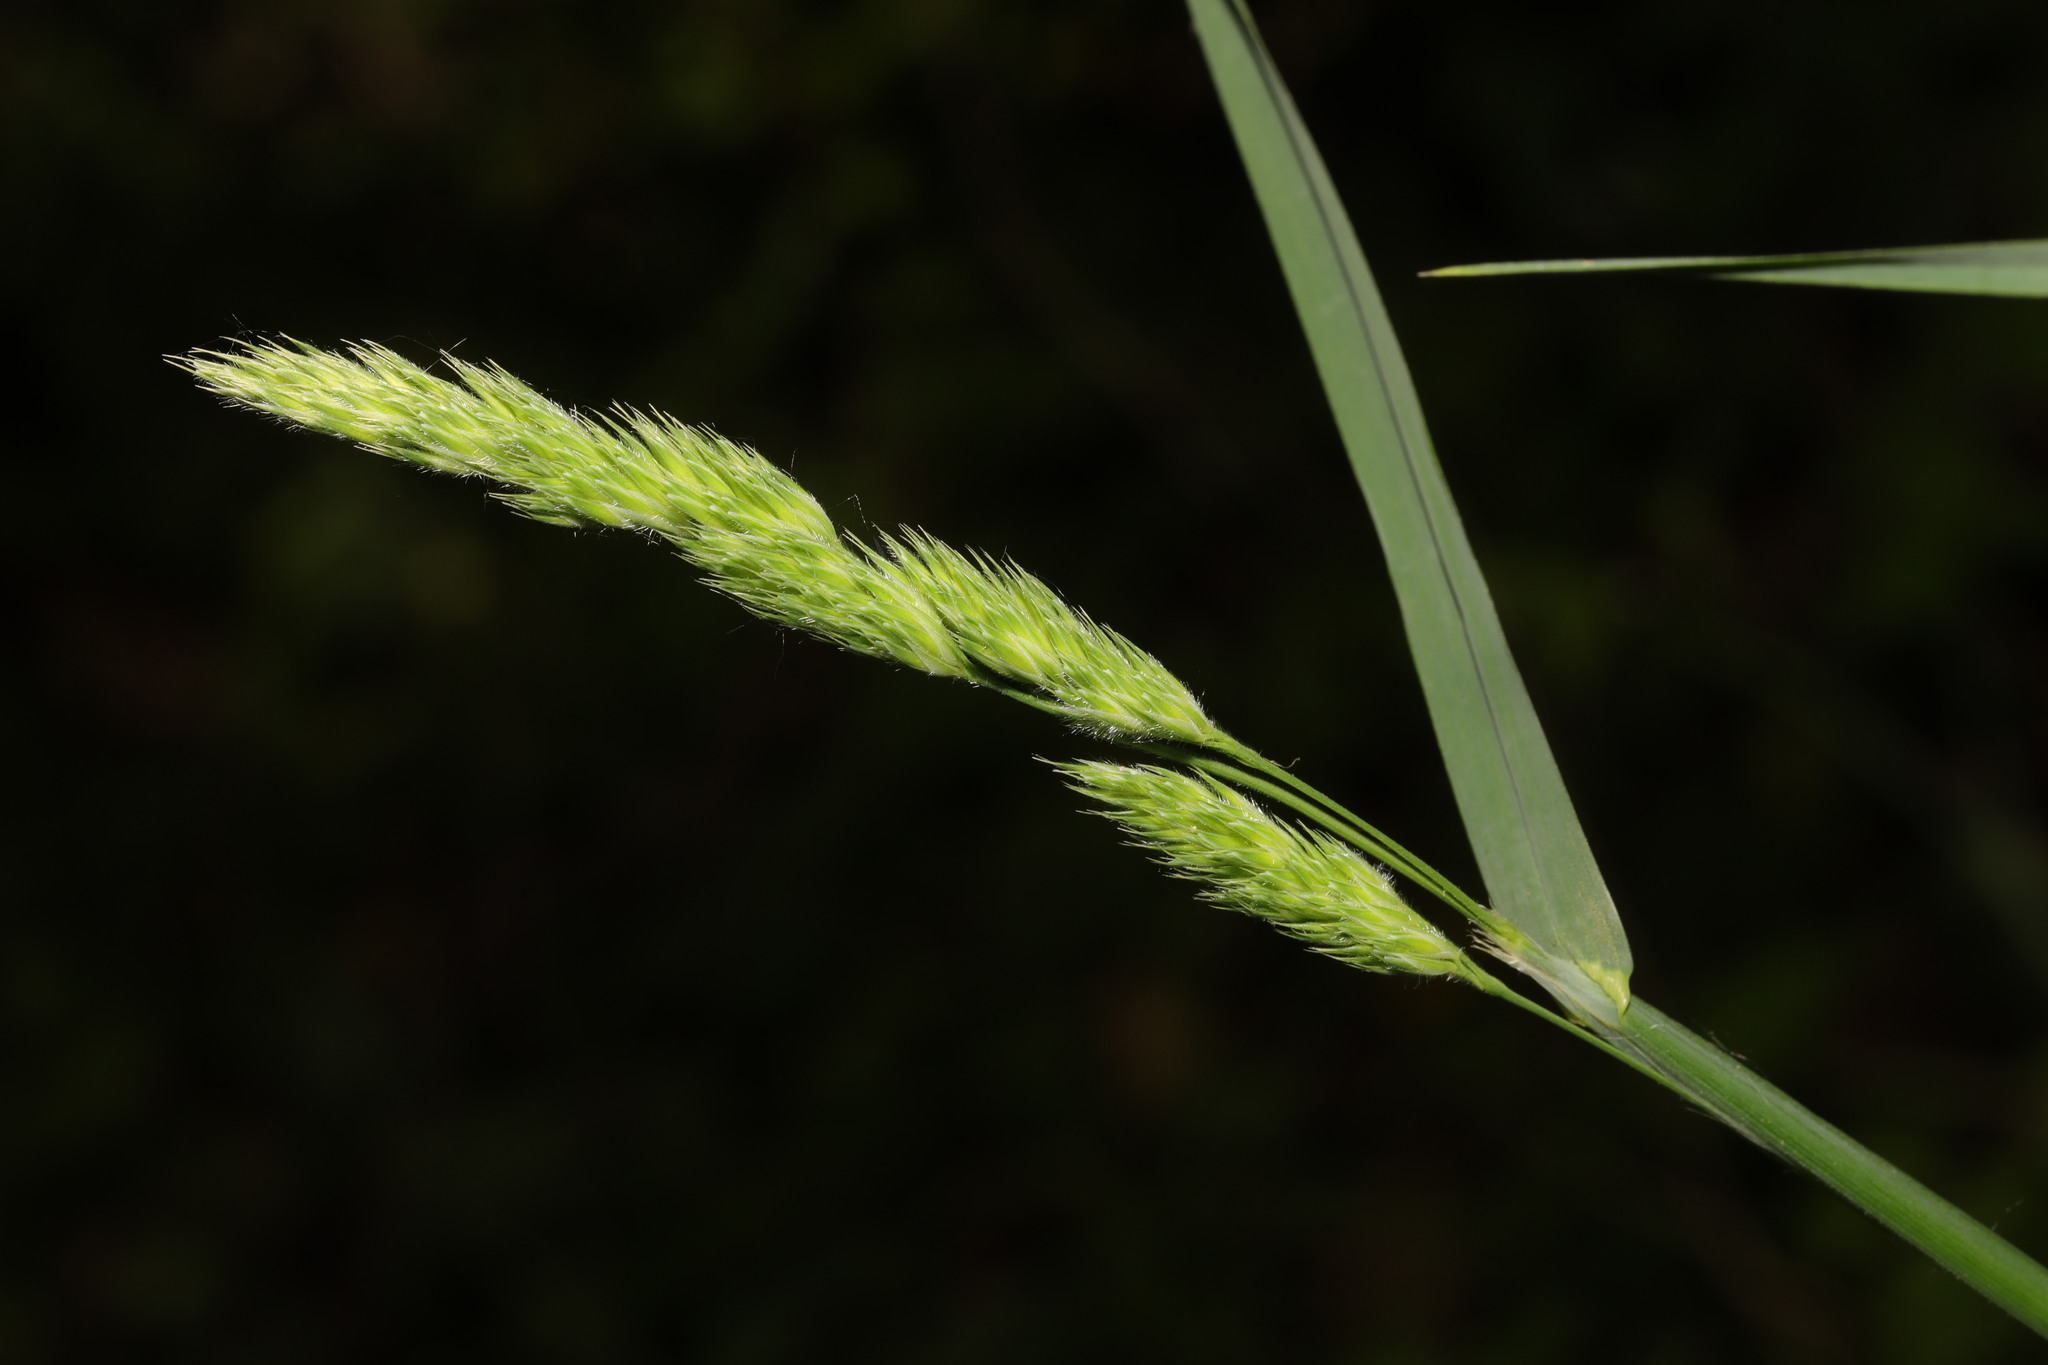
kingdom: Plantae
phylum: Tracheophyta
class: Liliopsida
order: Poales
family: Poaceae
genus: Dactylis
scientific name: Dactylis glomerata
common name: Orchardgrass
